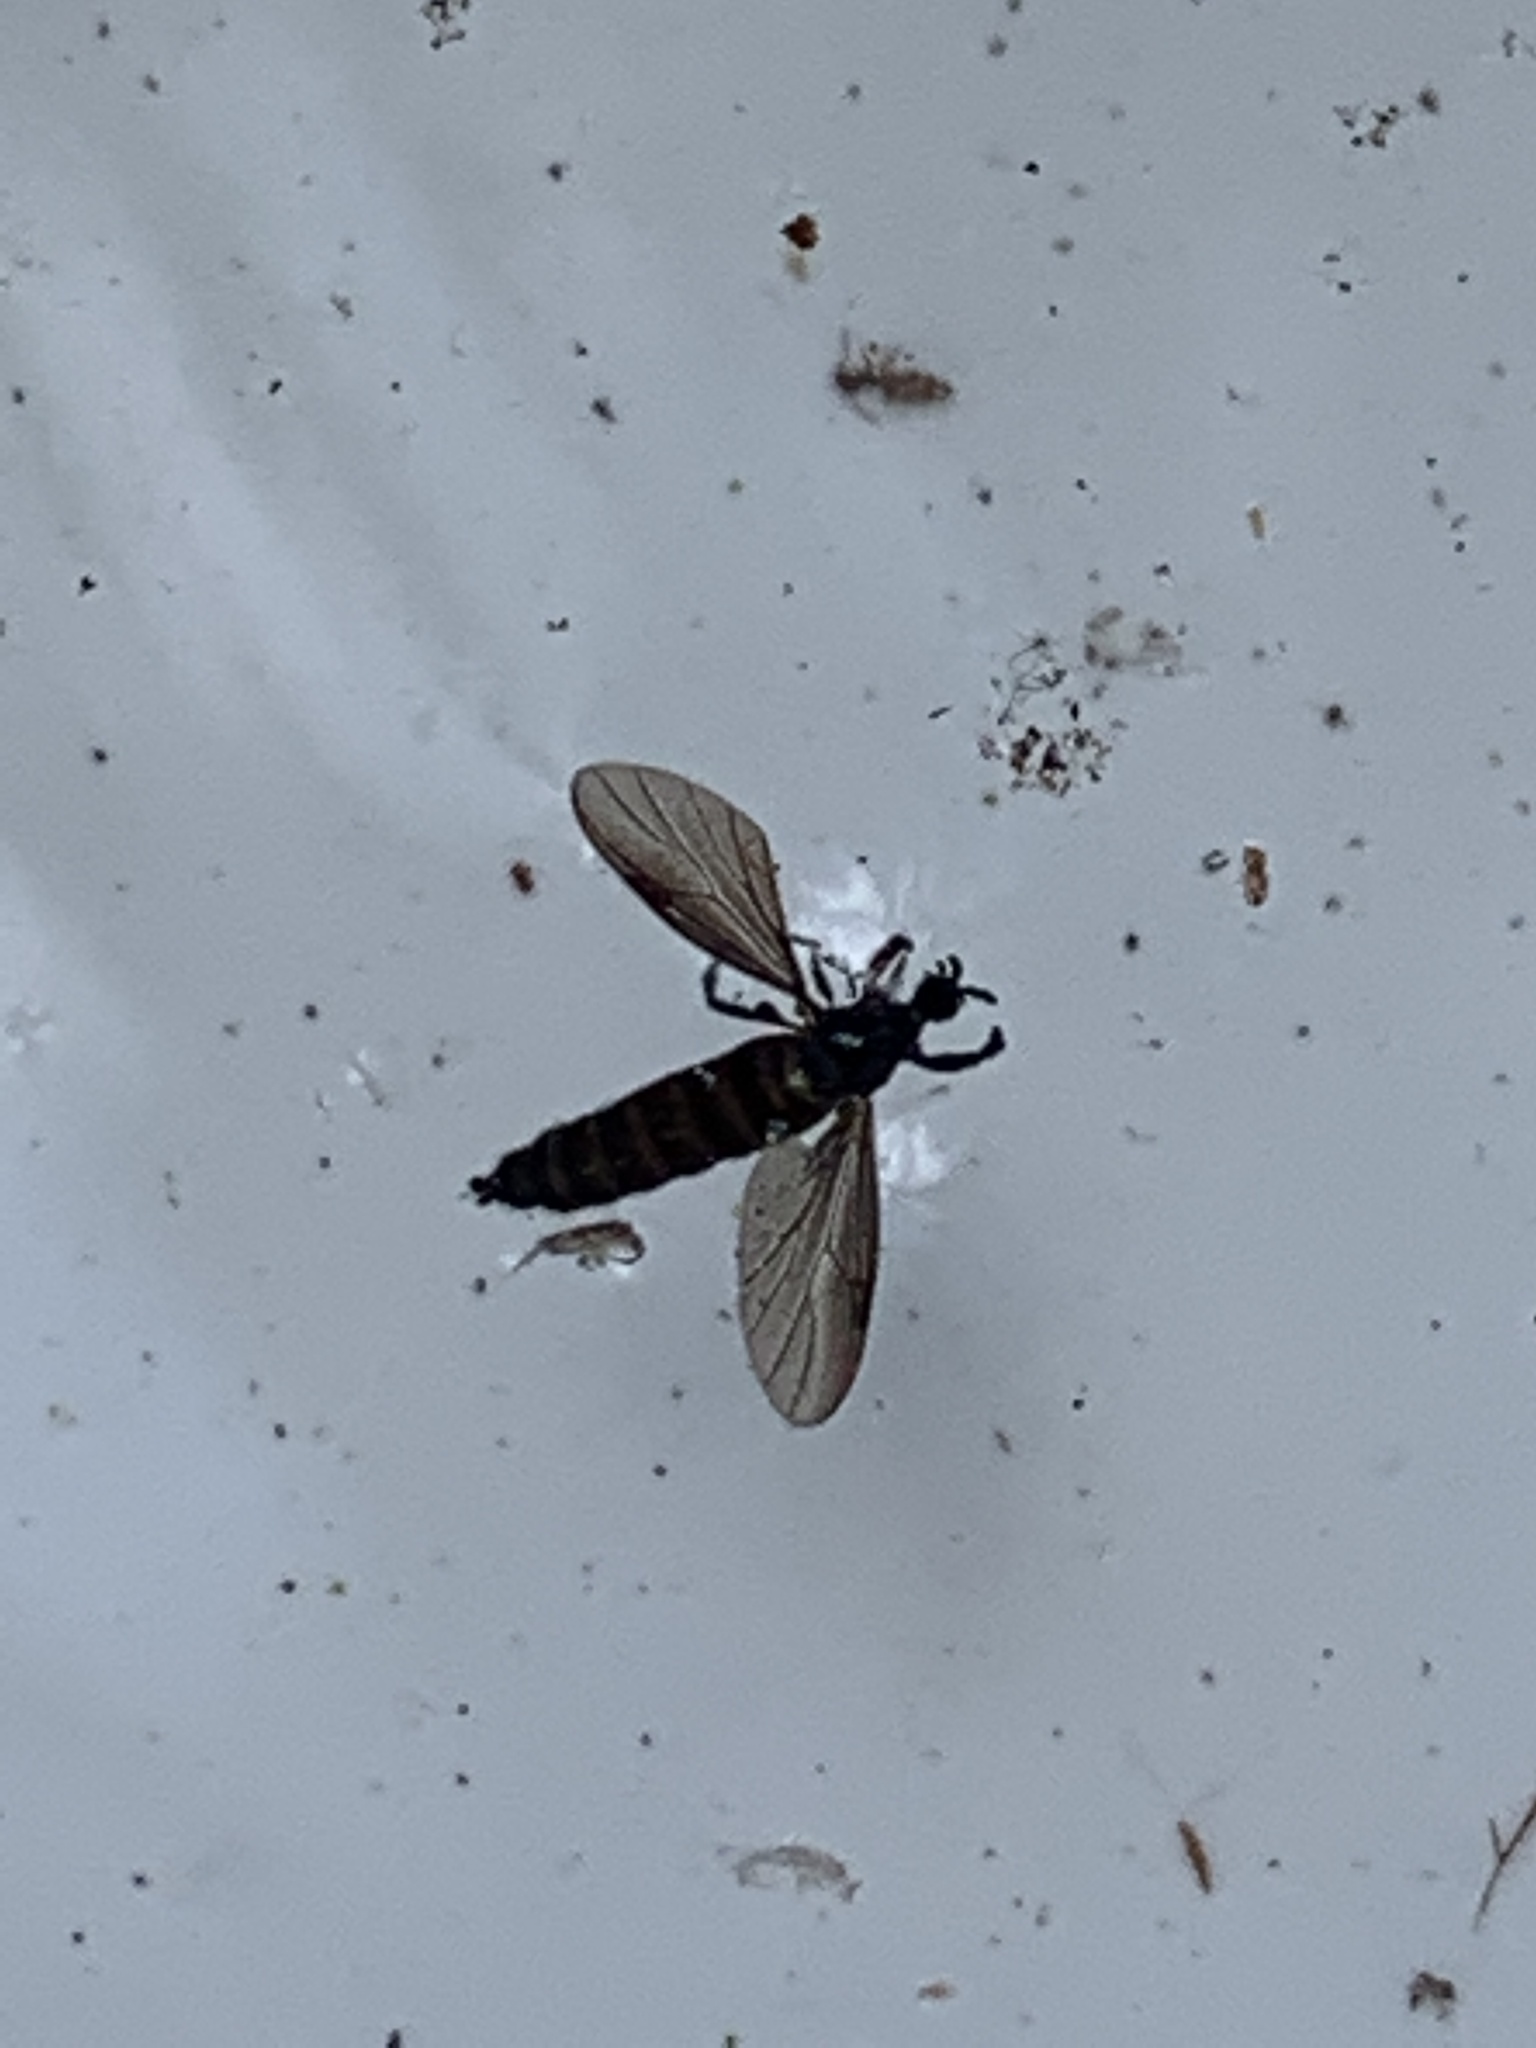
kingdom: Animalia
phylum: Arthropoda
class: Insecta
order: Diptera
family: Bibionidae
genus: Dilophus
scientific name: Dilophus orbatus
